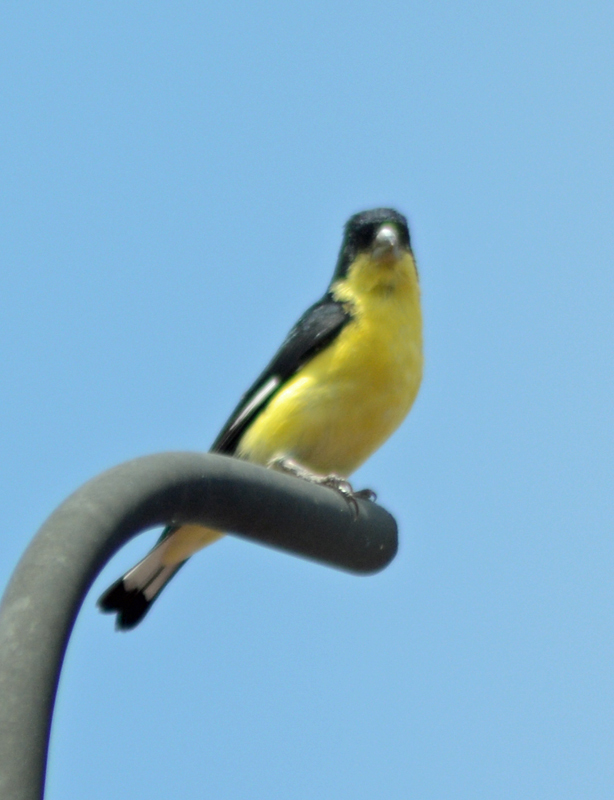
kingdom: Animalia
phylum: Chordata
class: Aves
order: Passeriformes
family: Fringillidae
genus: Spinus
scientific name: Spinus psaltria
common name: Lesser goldfinch
